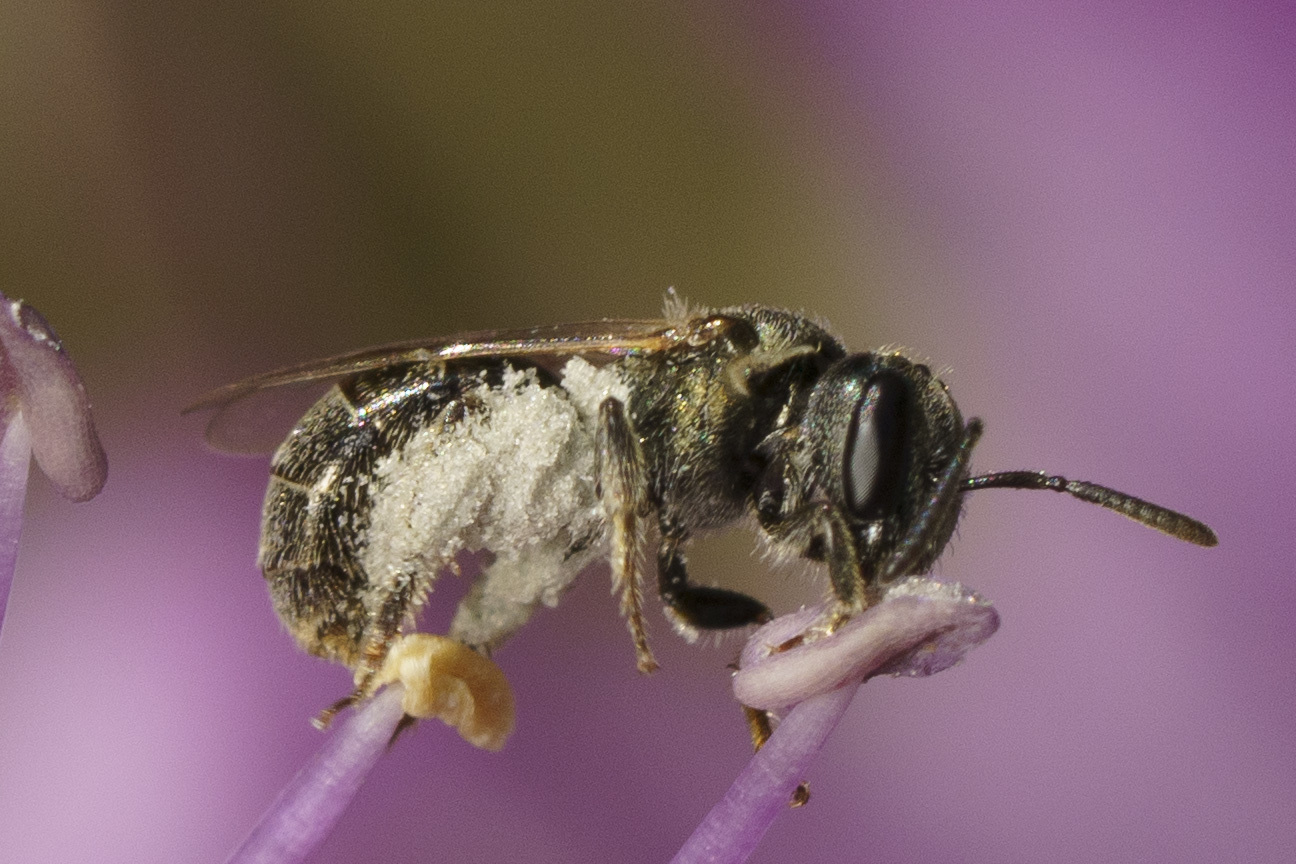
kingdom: Animalia
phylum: Arthropoda
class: Insecta
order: Hymenoptera
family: Halictidae
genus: Dialictus
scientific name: Dialictus
